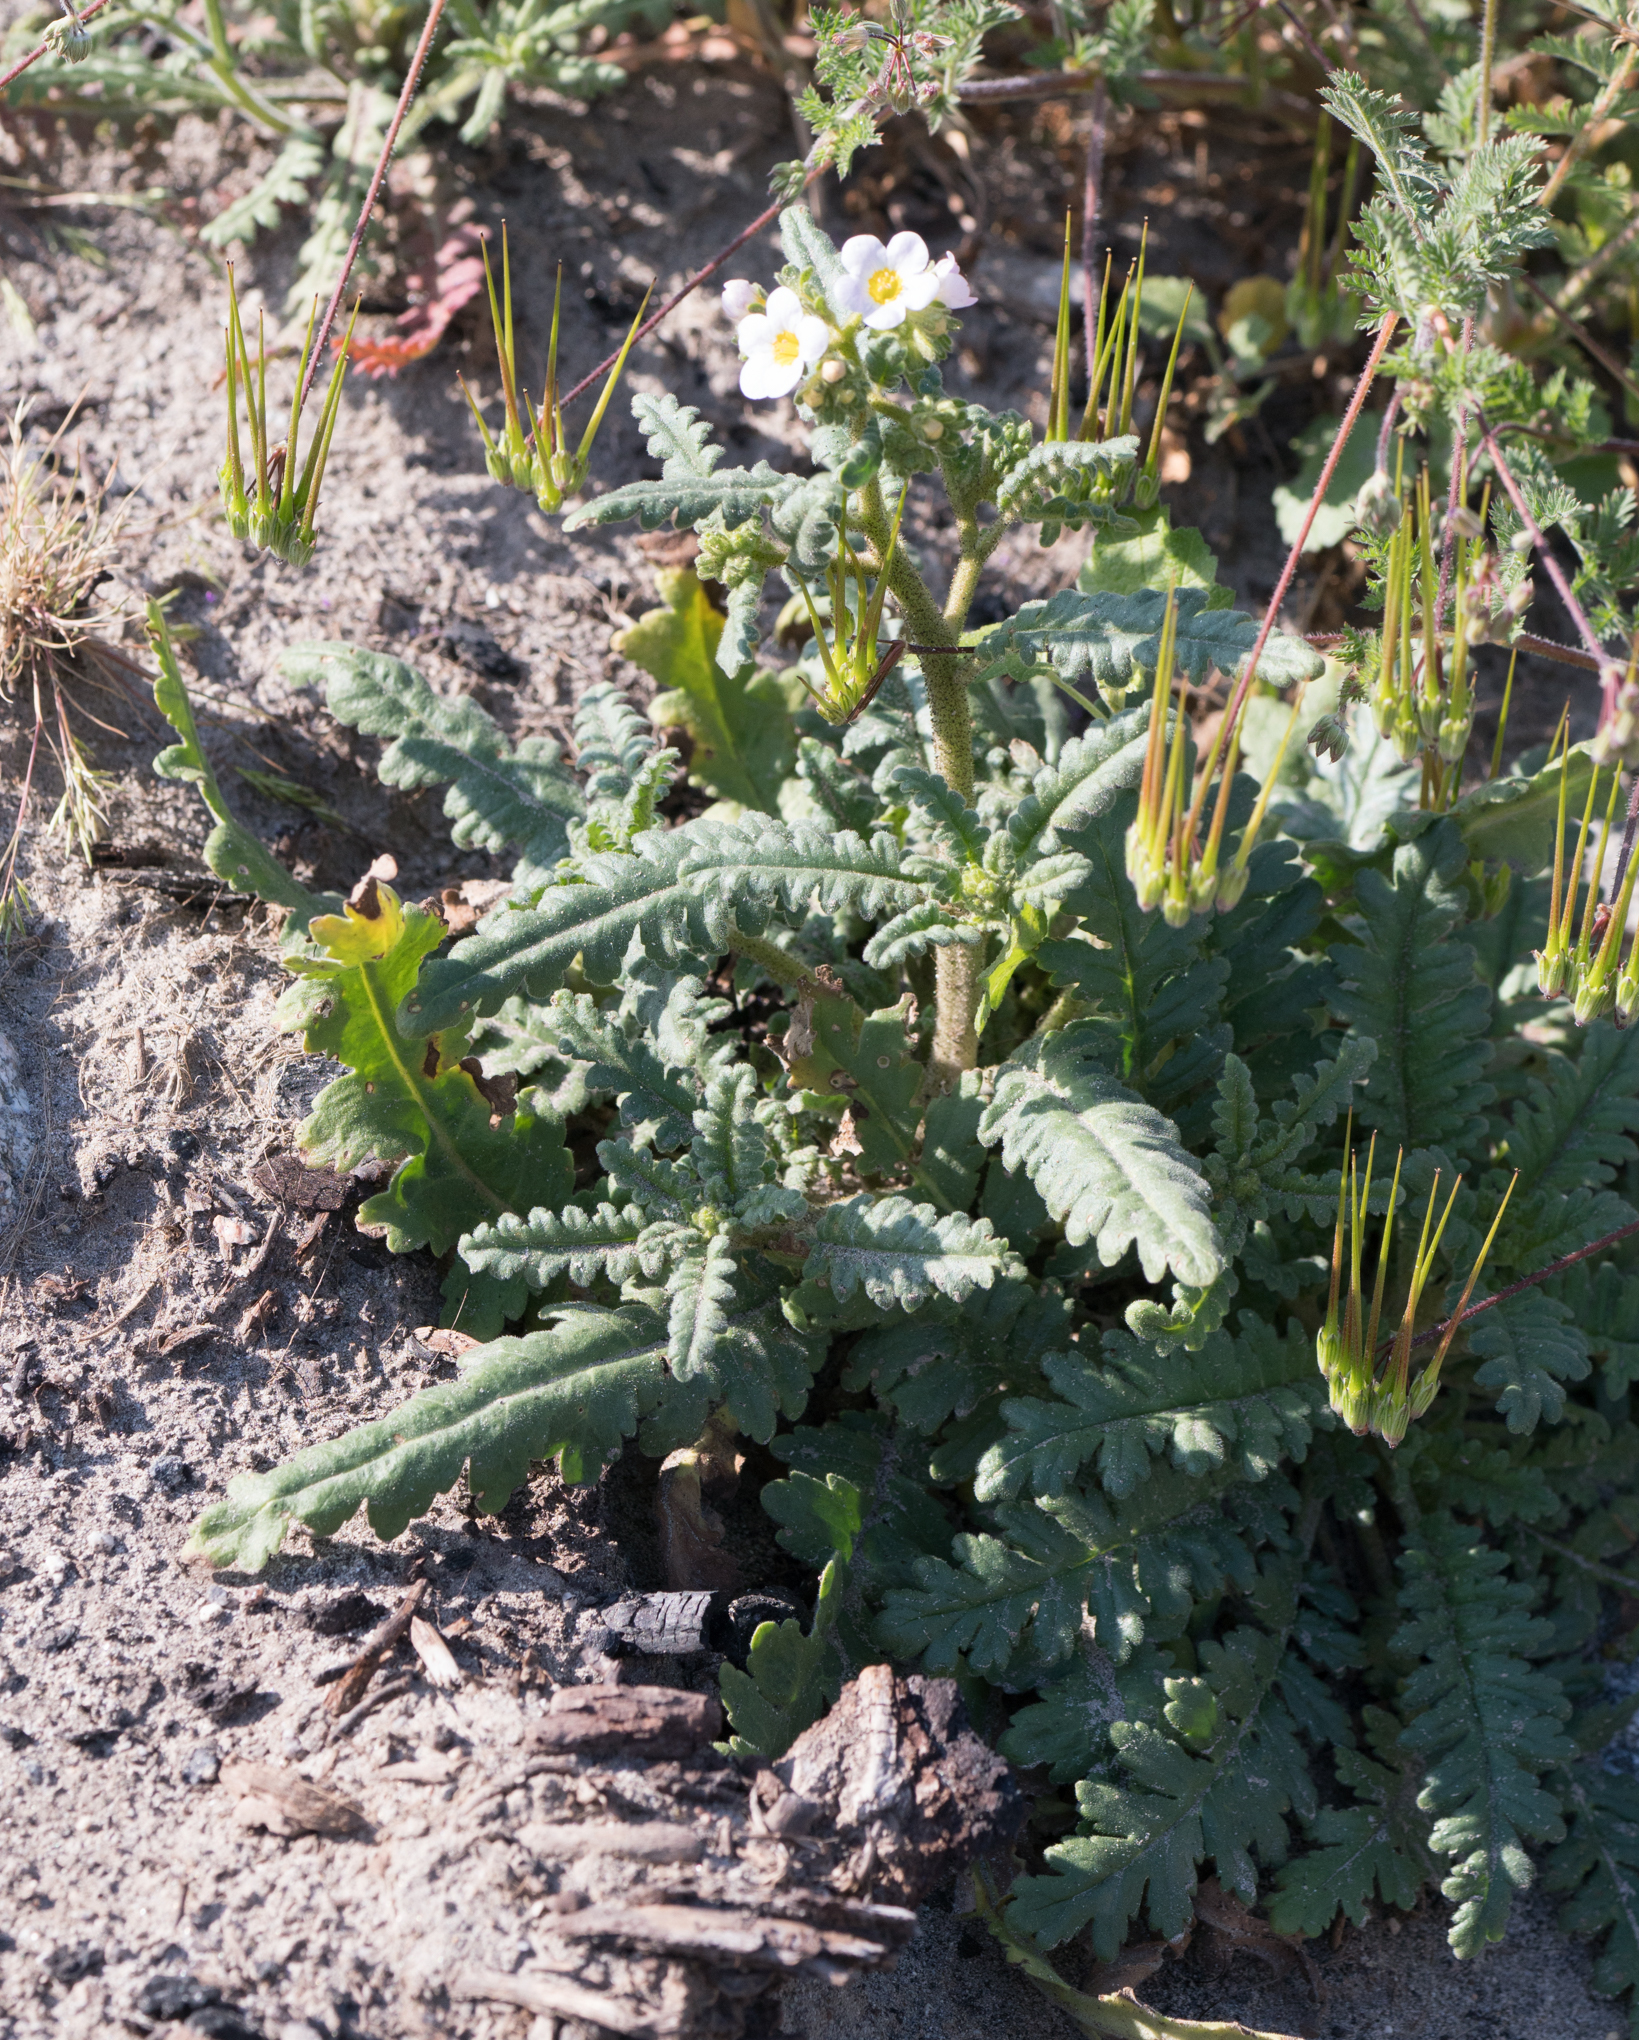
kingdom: Plantae
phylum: Tracheophyta
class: Magnoliopsida
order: Boraginales
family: Hydrophyllaceae
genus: Phacelia
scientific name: Phacelia brachyloba
